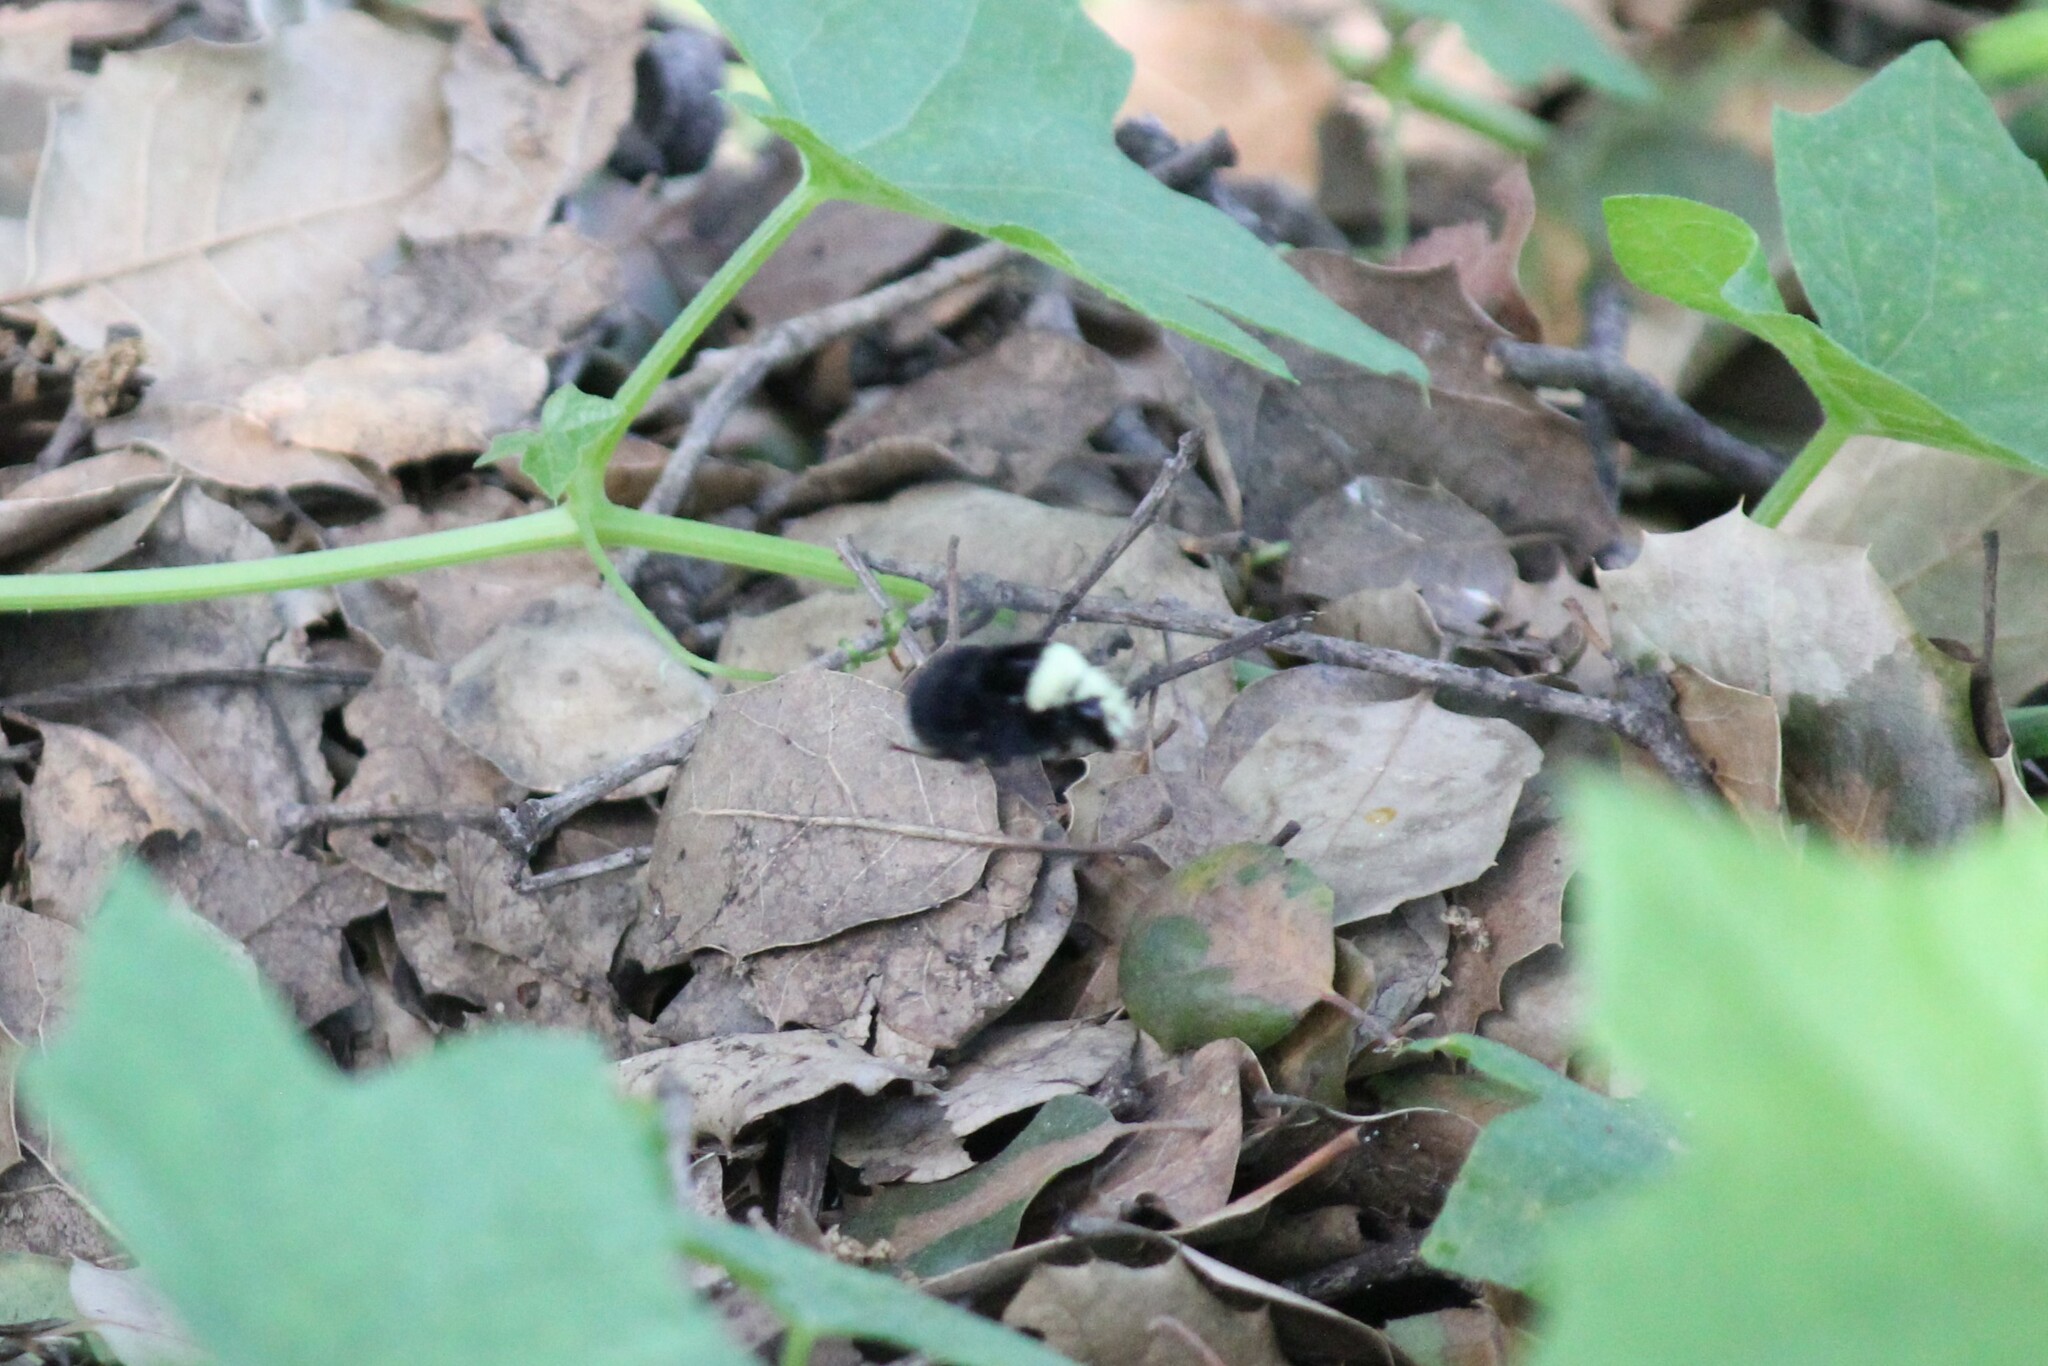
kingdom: Animalia
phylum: Arthropoda
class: Insecta
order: Hymenoptera
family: Apidae
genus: Bombus
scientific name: Bombus vosnesenskii
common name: Vosnesensky bumble bee
